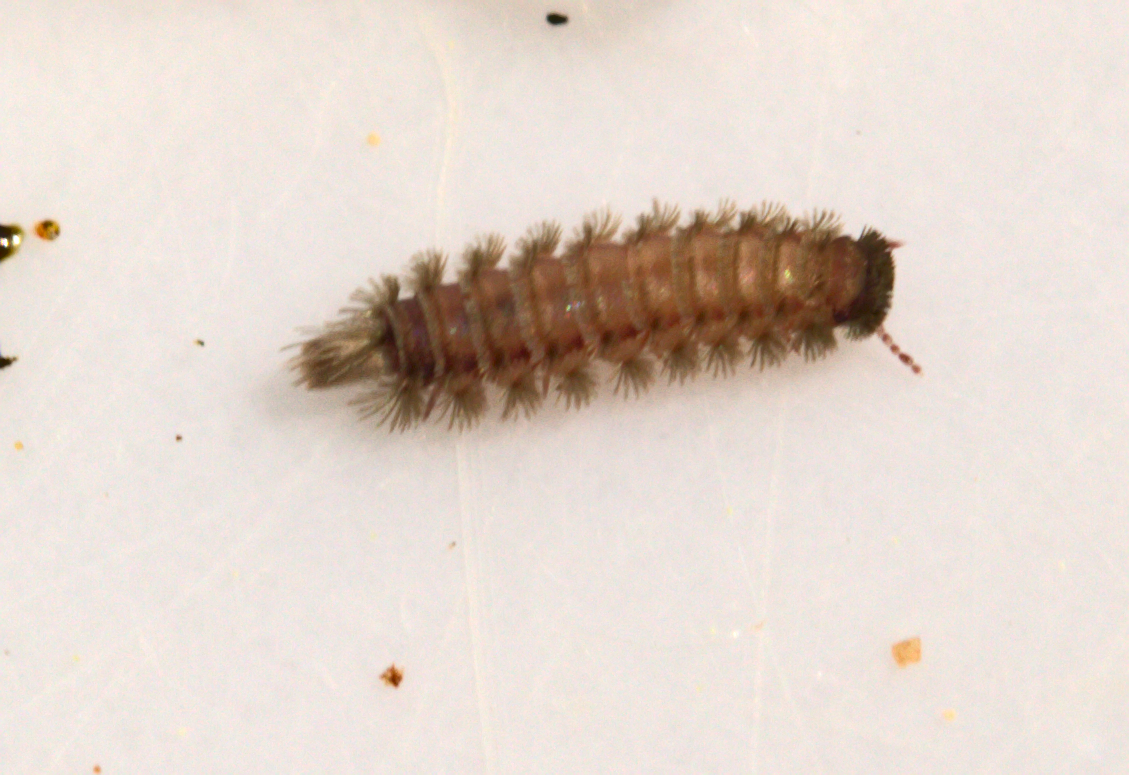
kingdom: Animalia
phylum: Arthropoda
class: Diplopoda
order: Polyxenida
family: Polyxenidae
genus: Polyxenus
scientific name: Polyxenus lagurus
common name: Bristly millipede
